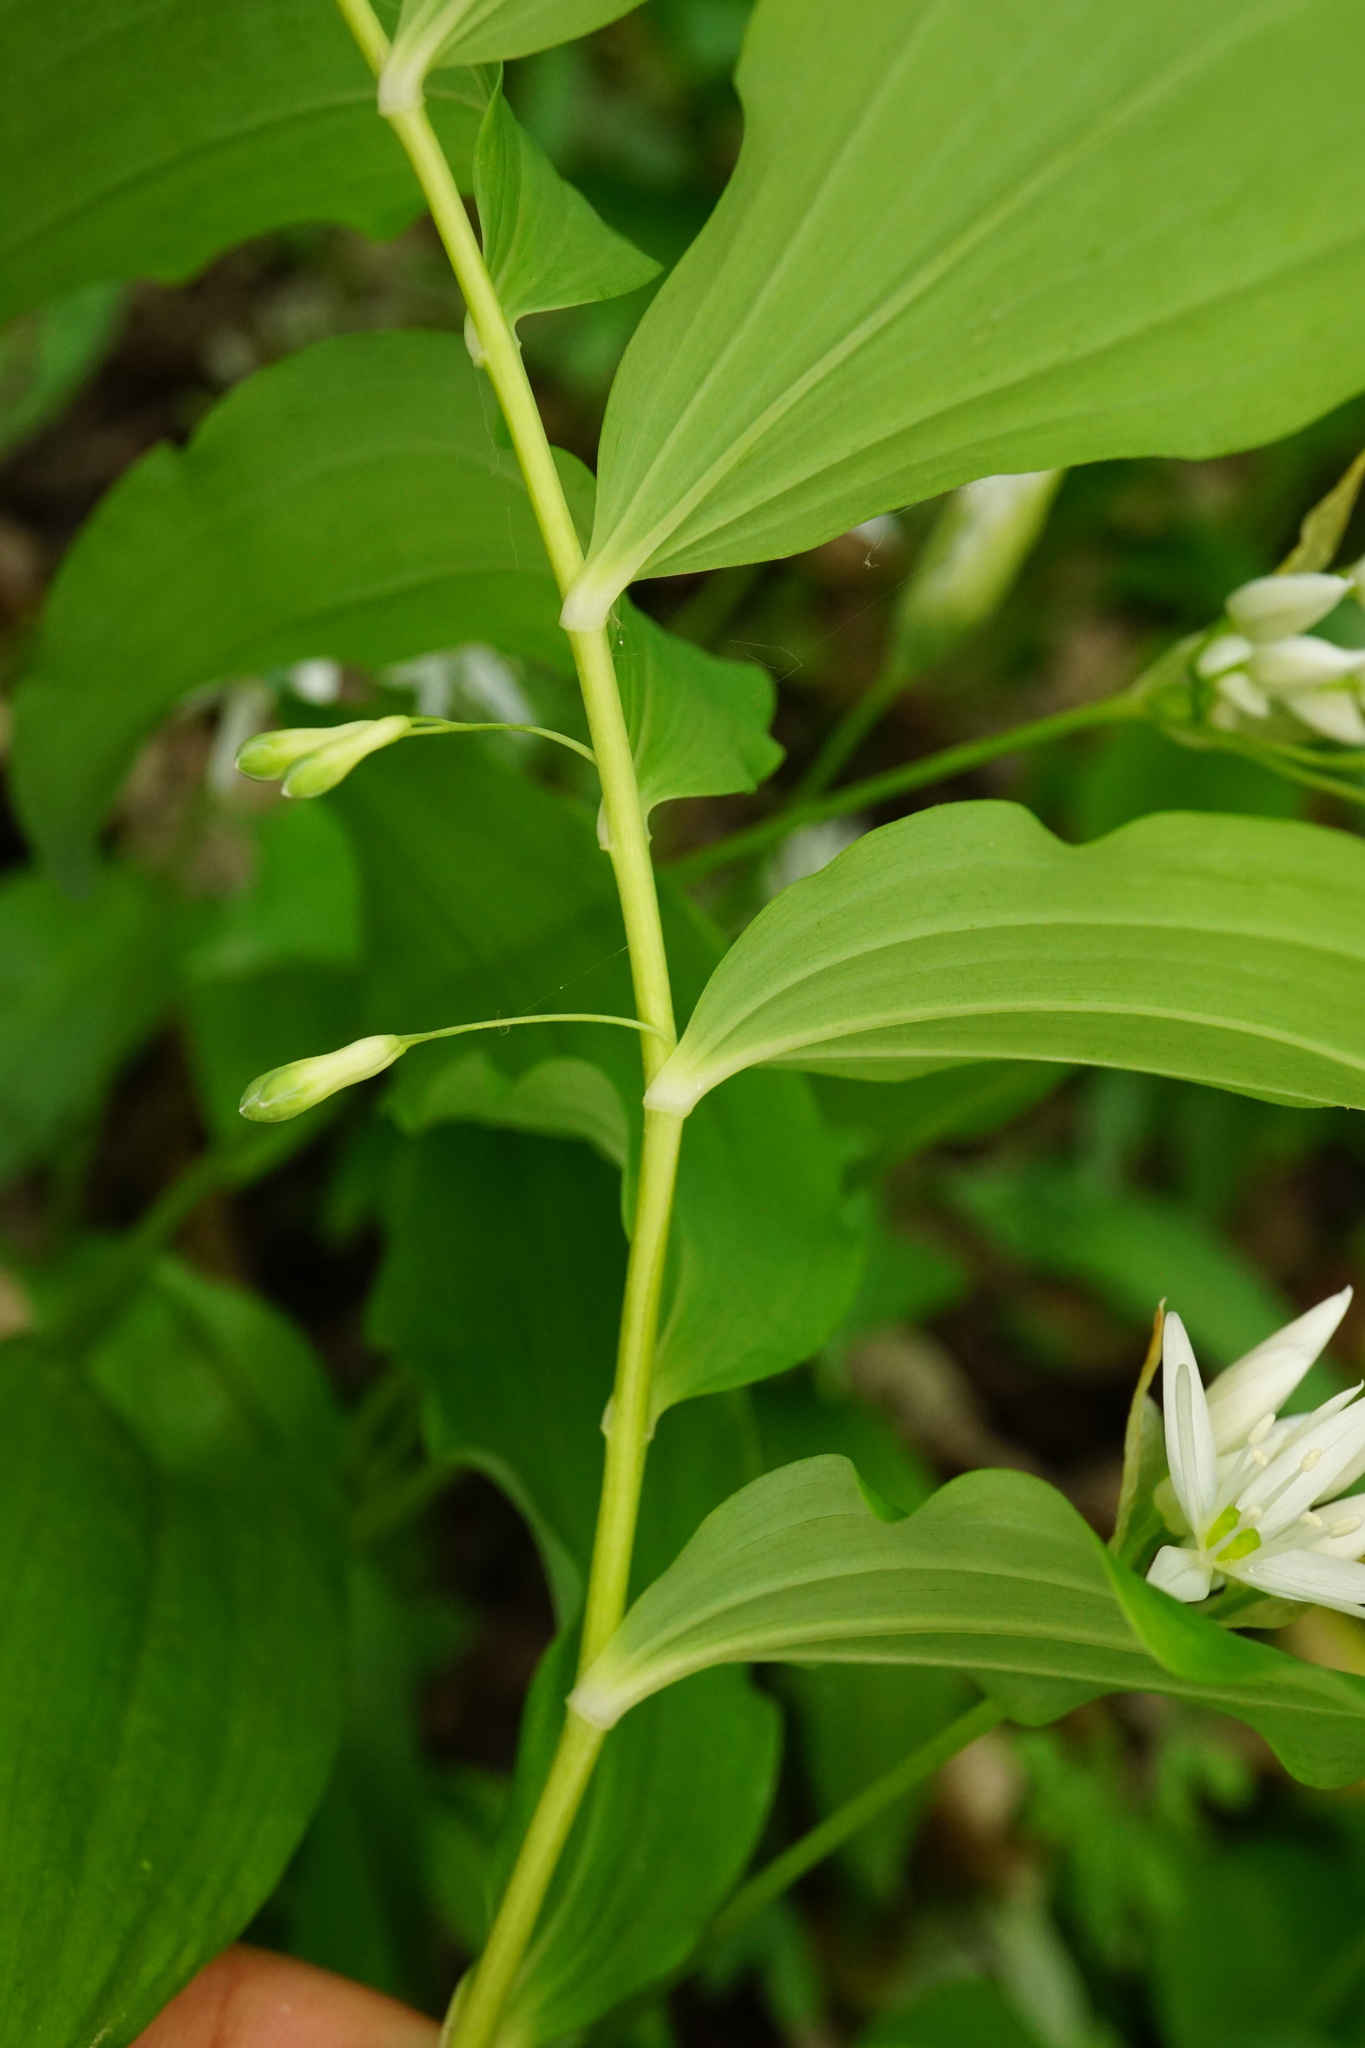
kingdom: Plantae
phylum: Tracheophyta
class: Liliopsida
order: Asparagales
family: Asparagaceae
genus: Polygonatum
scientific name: Polygonatum multiflorum
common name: Solomon's-seal
